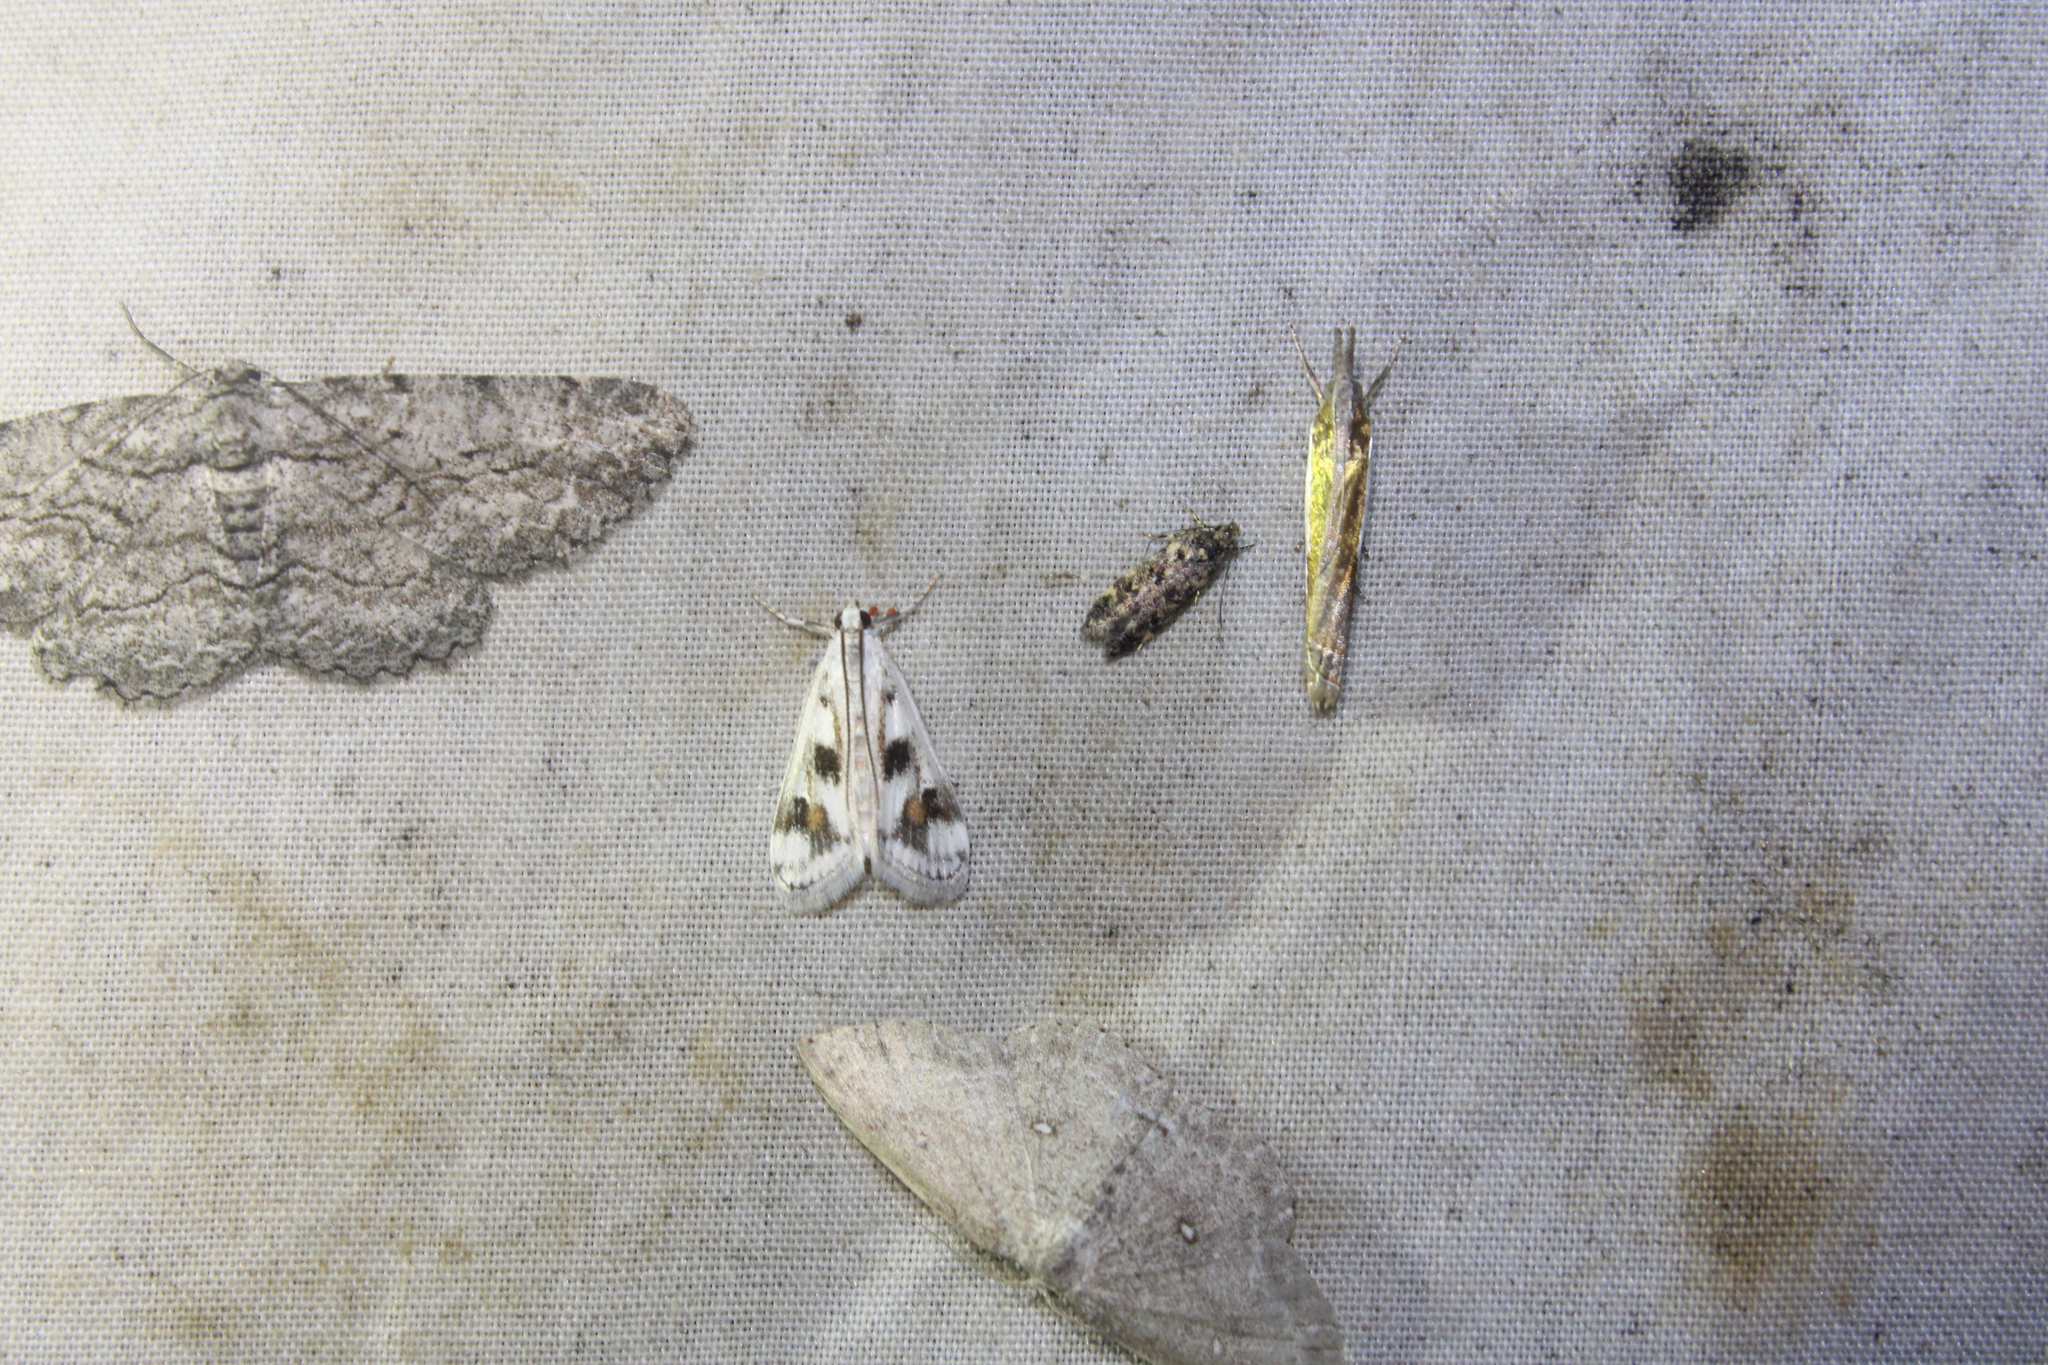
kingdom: Animalia
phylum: Arthropoda
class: Insecta
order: Lepidoptera
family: Crambidae
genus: Parapoynx
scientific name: Parapoynx maculalis
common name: Polymorphic pondweed moth
